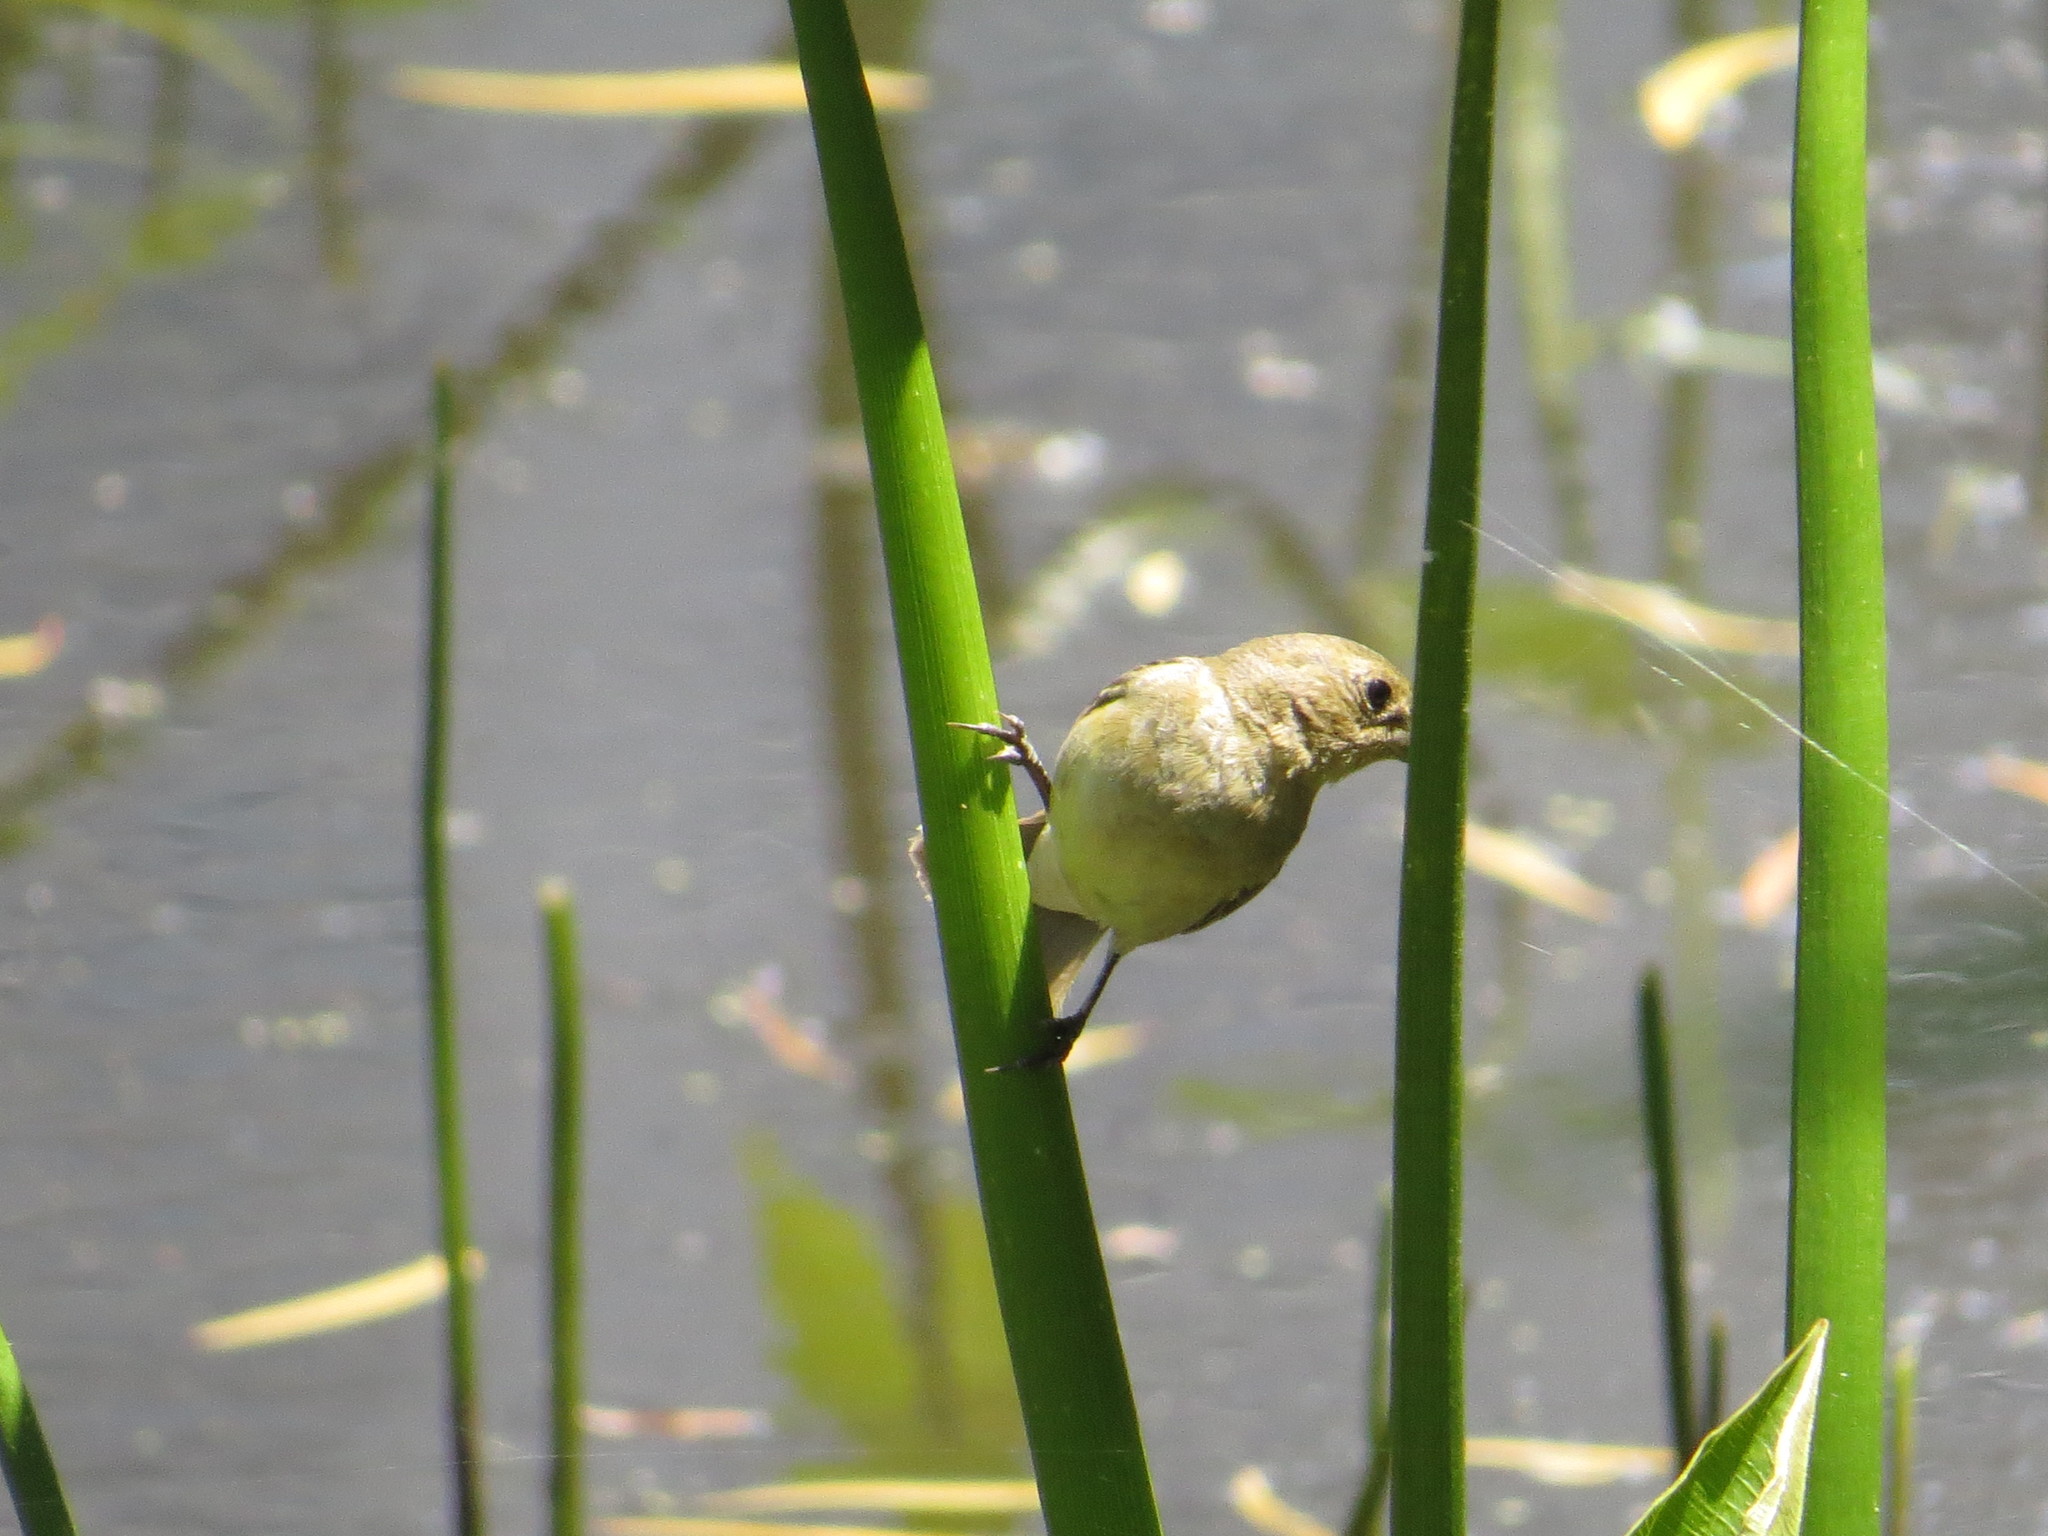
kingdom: Animalia
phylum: Chordata
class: Aves
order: Passeriformes
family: Thraupidae
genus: Sporophila
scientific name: Sporophila caerulescens
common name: Double-collared seedeater
